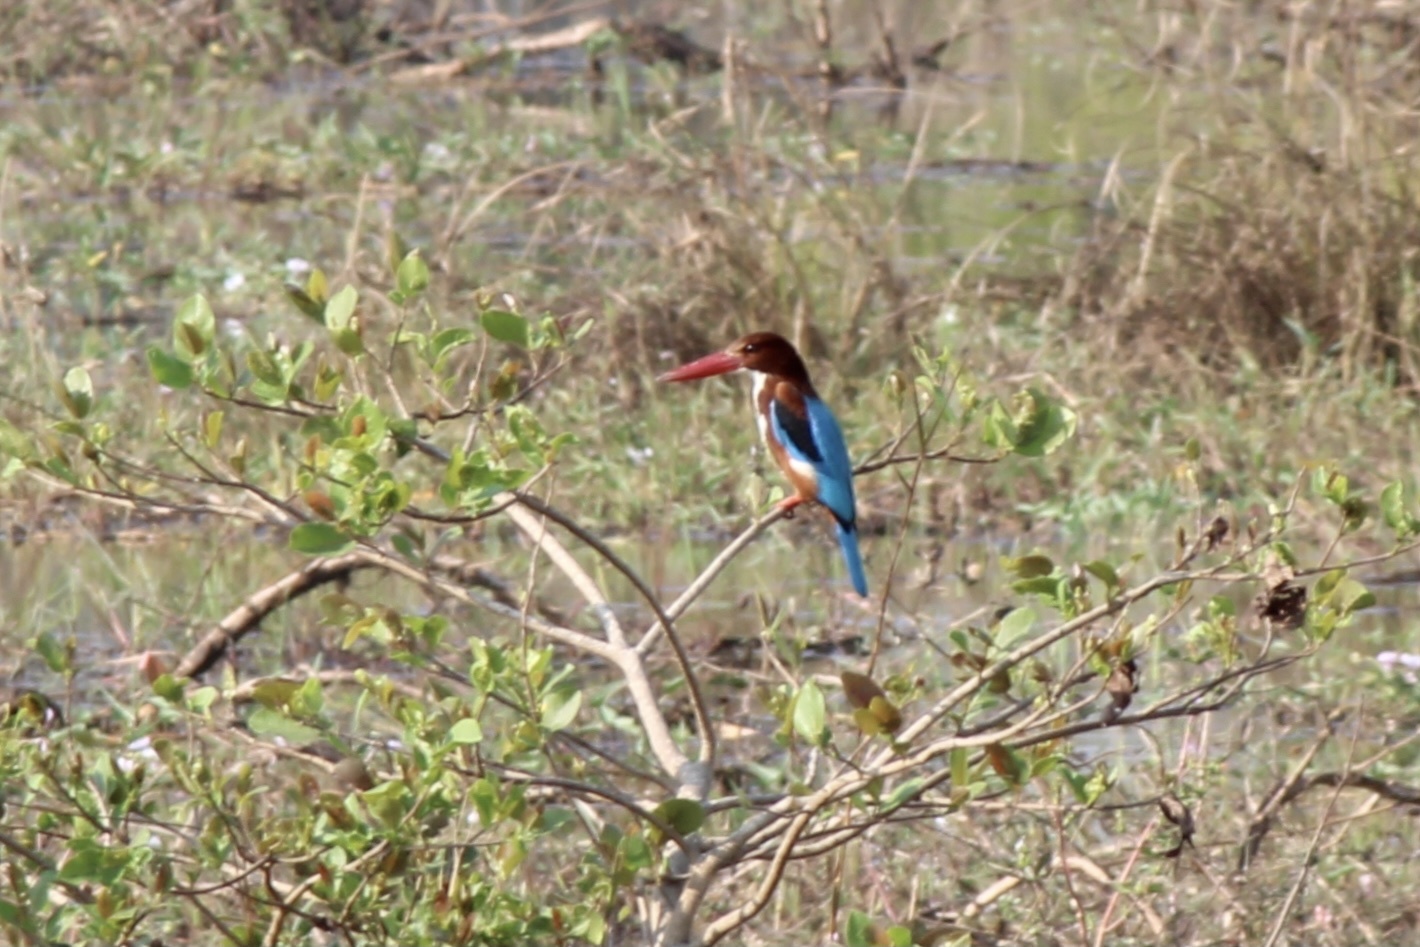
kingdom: Animalia
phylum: Chordata
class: Aves
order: Coraciiformes
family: Alcedinidae
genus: Halcyon
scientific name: Halcyon smyrnensis
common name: White-throated kingfisher
